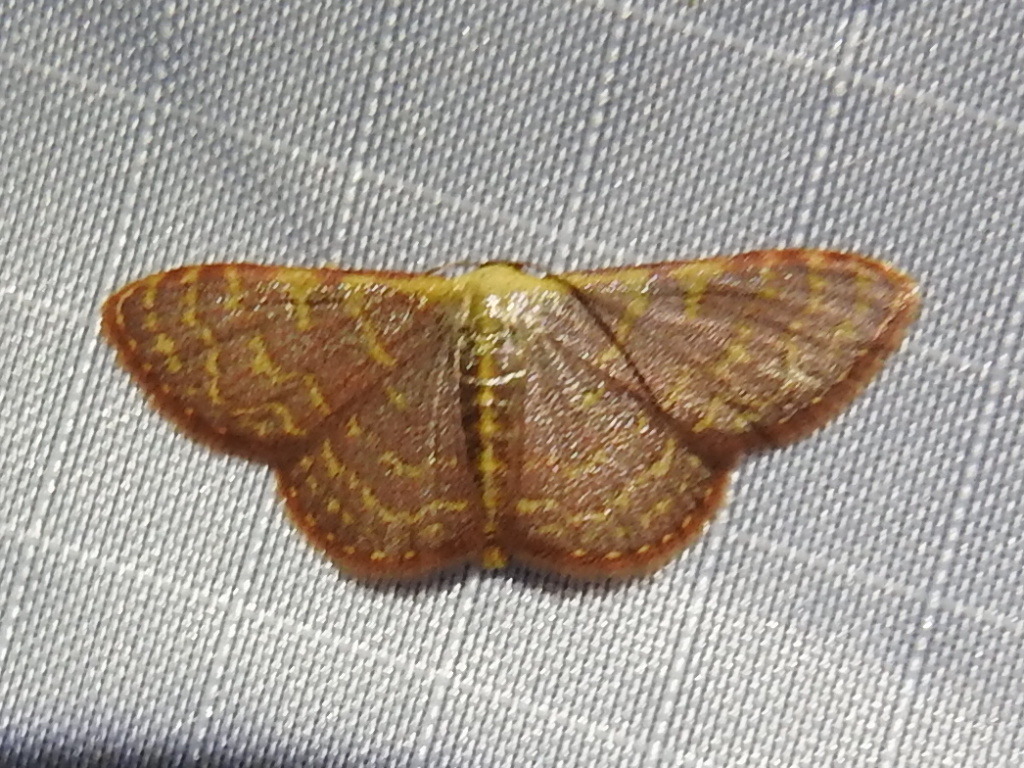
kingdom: Animalia
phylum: Arthropoda
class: Insecta
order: Lepidoptera
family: Geometridae
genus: Leptostales
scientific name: Leptostales pannaria
